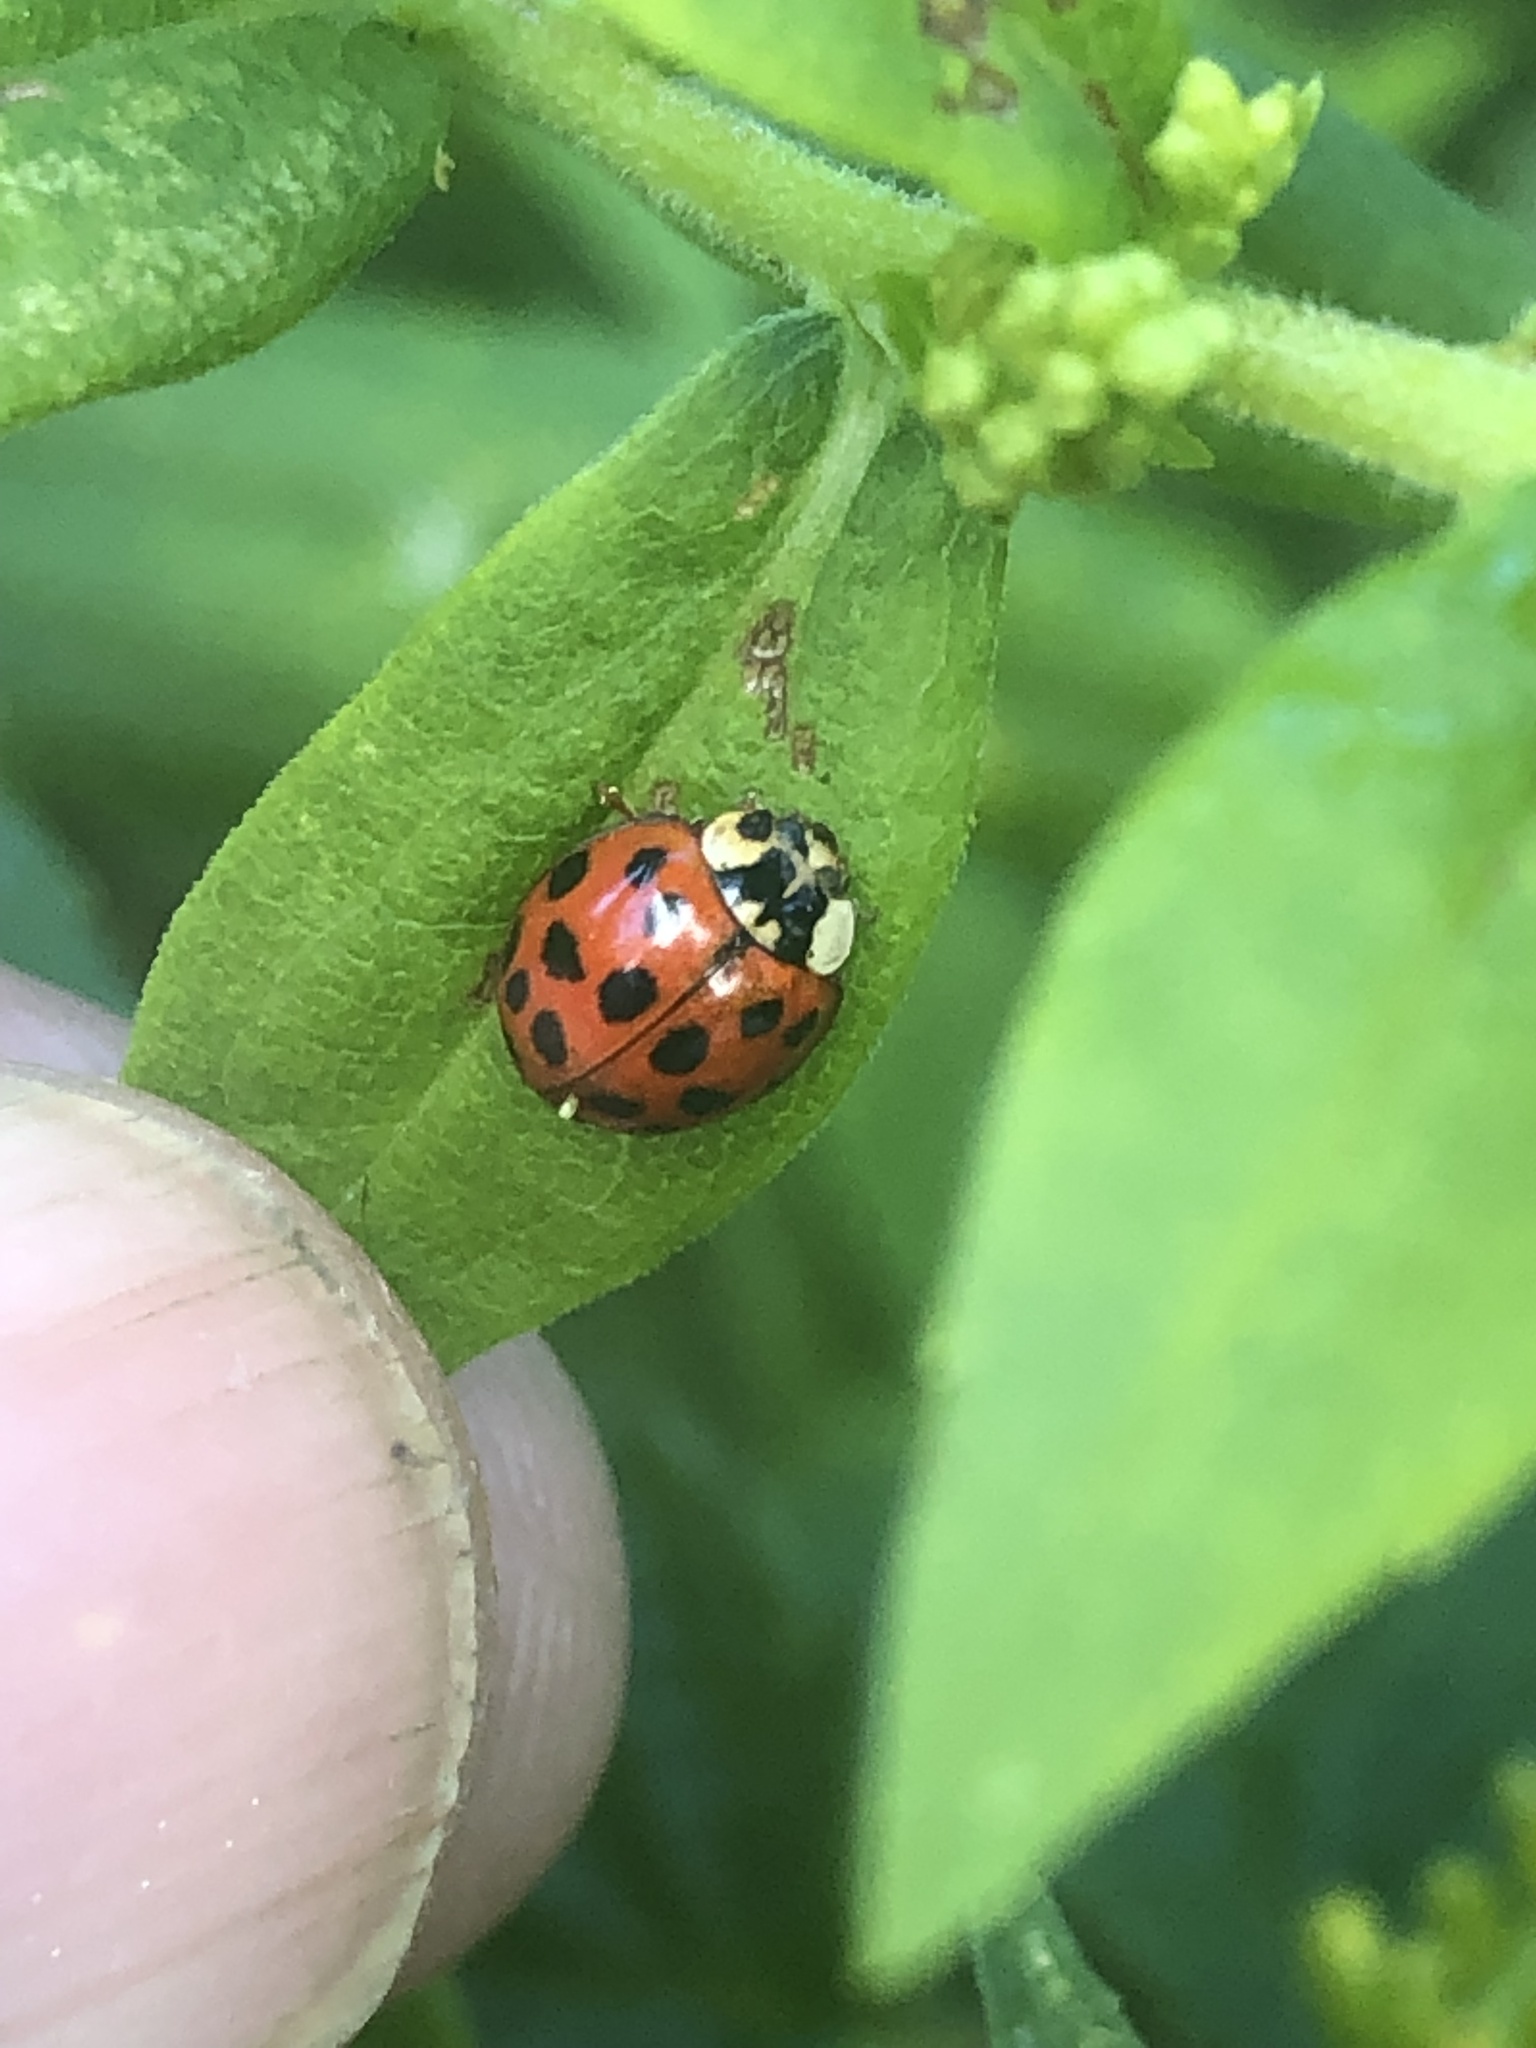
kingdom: Animalia
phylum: Arthropoda
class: Insecta
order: Coleoptera
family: Coccinellidae
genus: Harmonia
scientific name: Harmonia axyridis
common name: Harlequin ladybird
